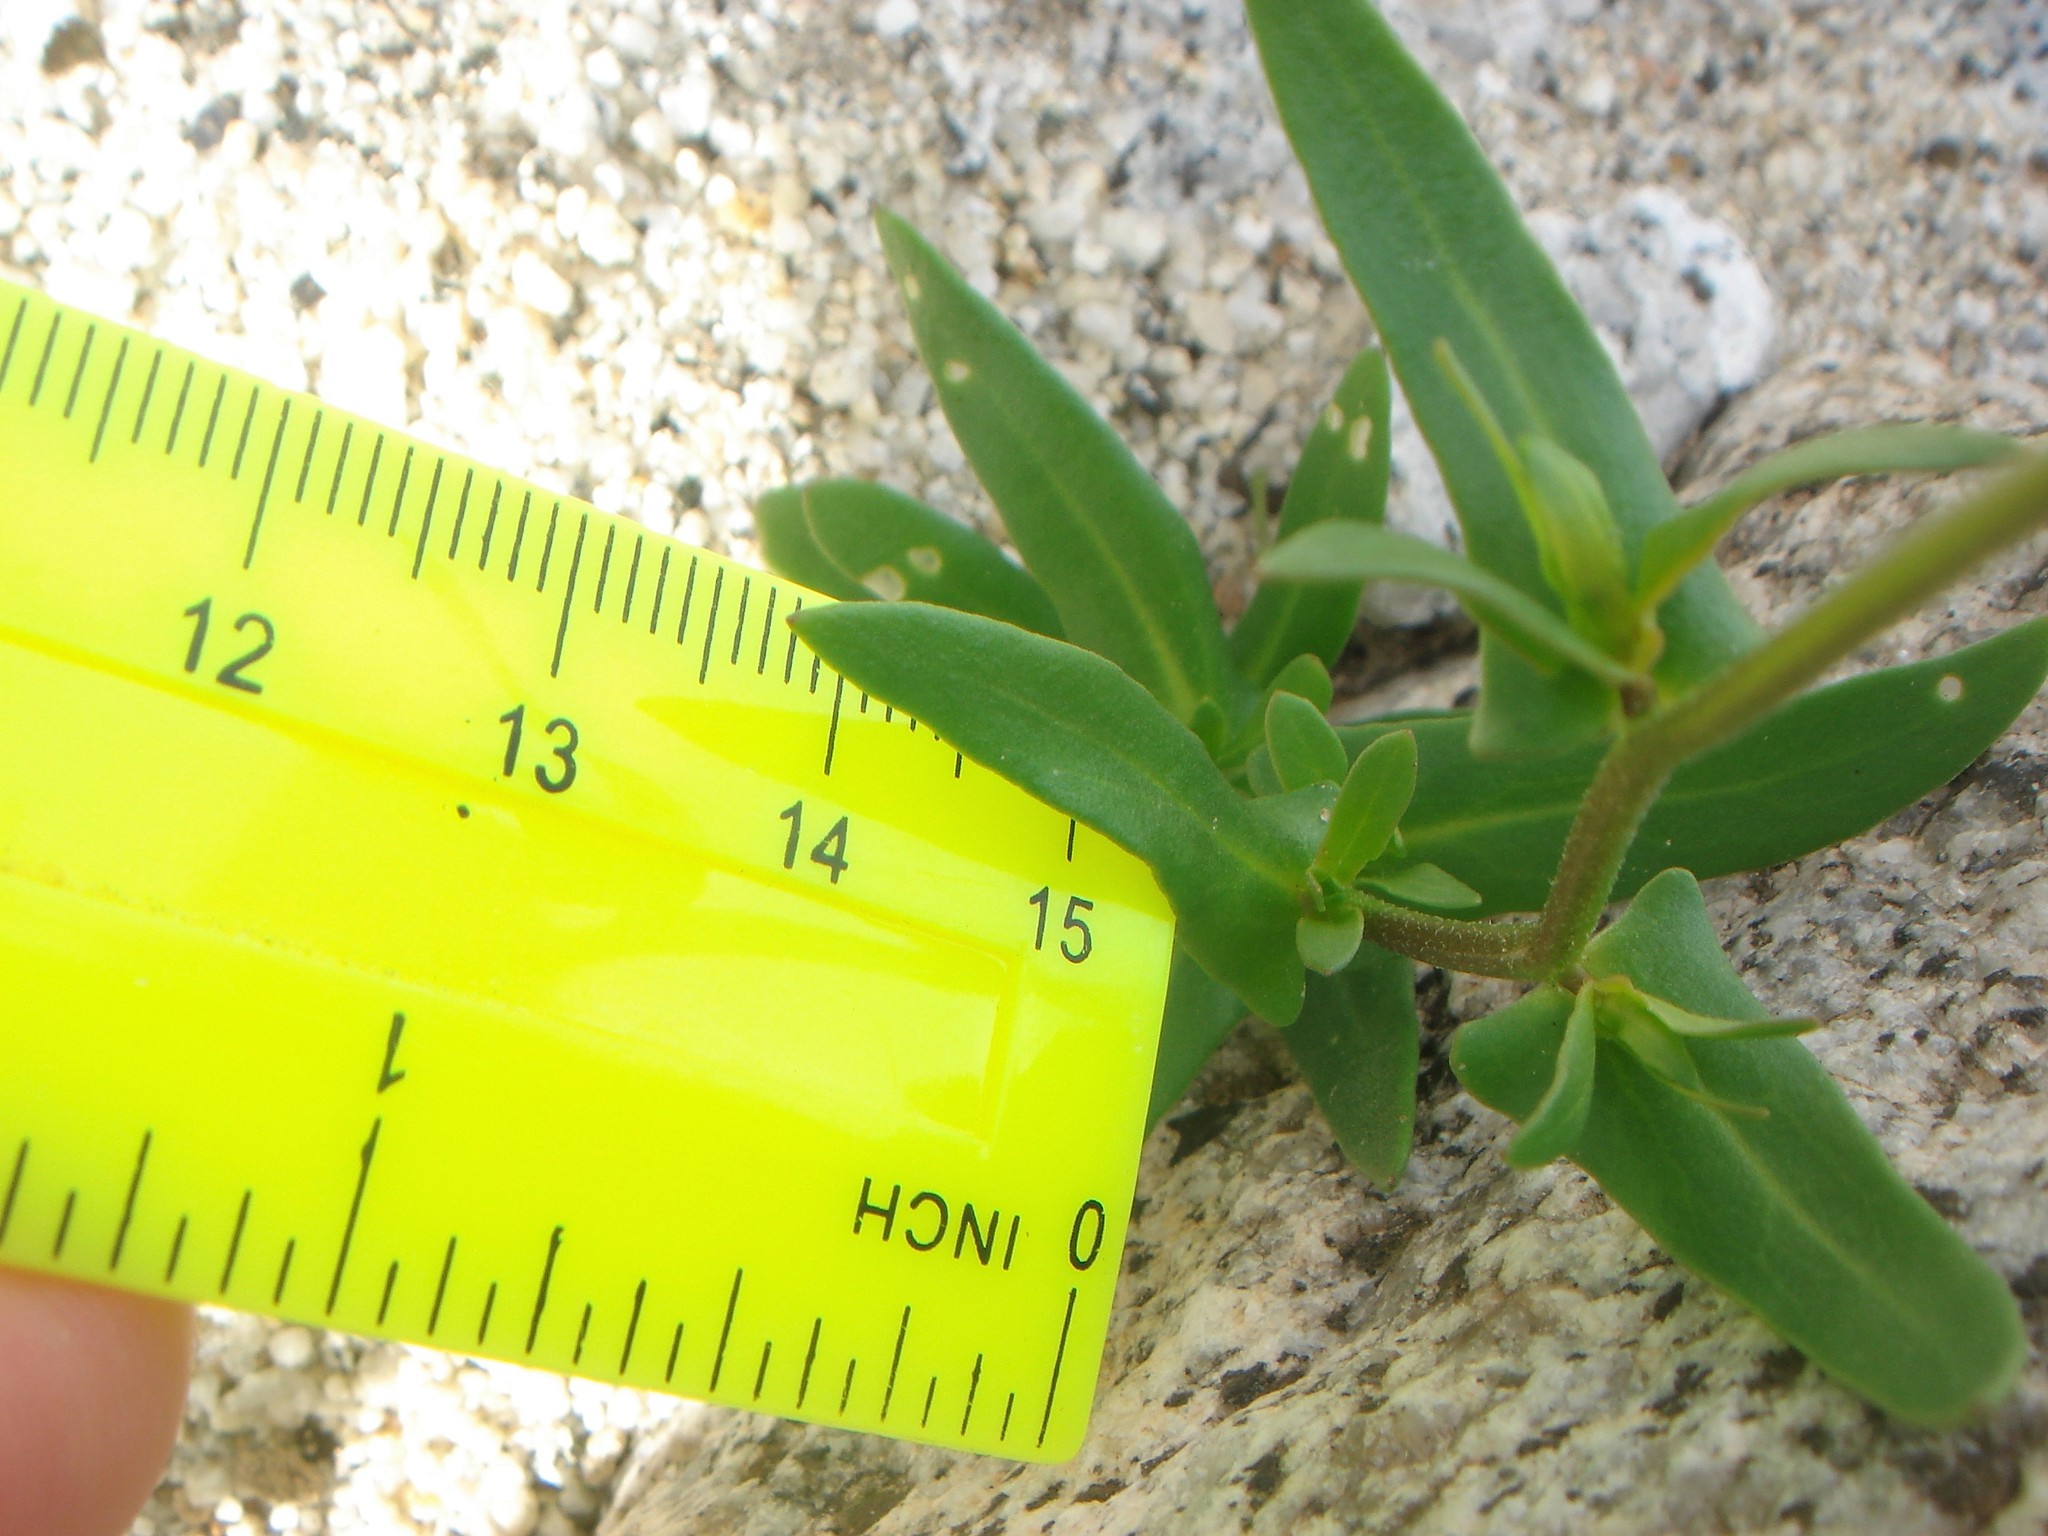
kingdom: Plantae
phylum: Tracheophyta
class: Magnoliopsida
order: Brassicales
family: Brassicaceae
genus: Streptanthus
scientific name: Streptanthus cooperi
